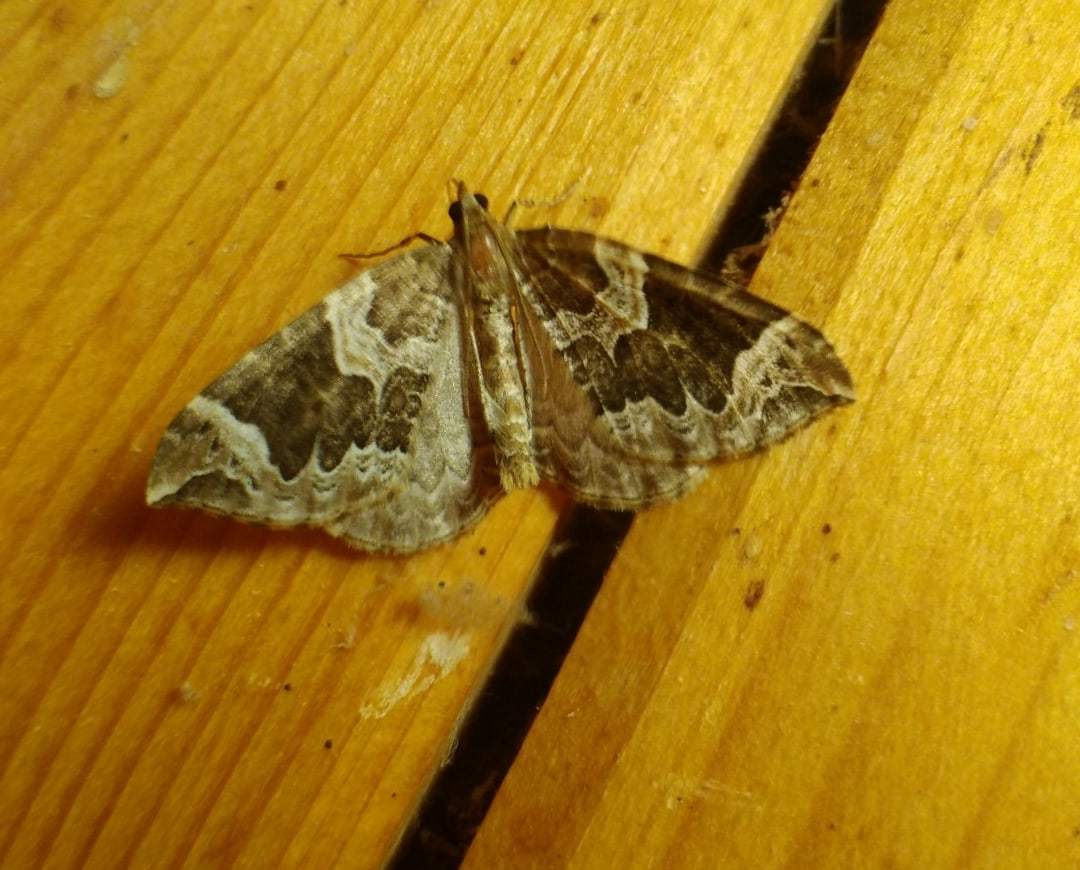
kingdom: Animalia
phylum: Arthropoda
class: Insecta
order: Lepidoptera
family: Geometridae
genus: Eulithis
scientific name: Eulithis prunata
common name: Phoenix
